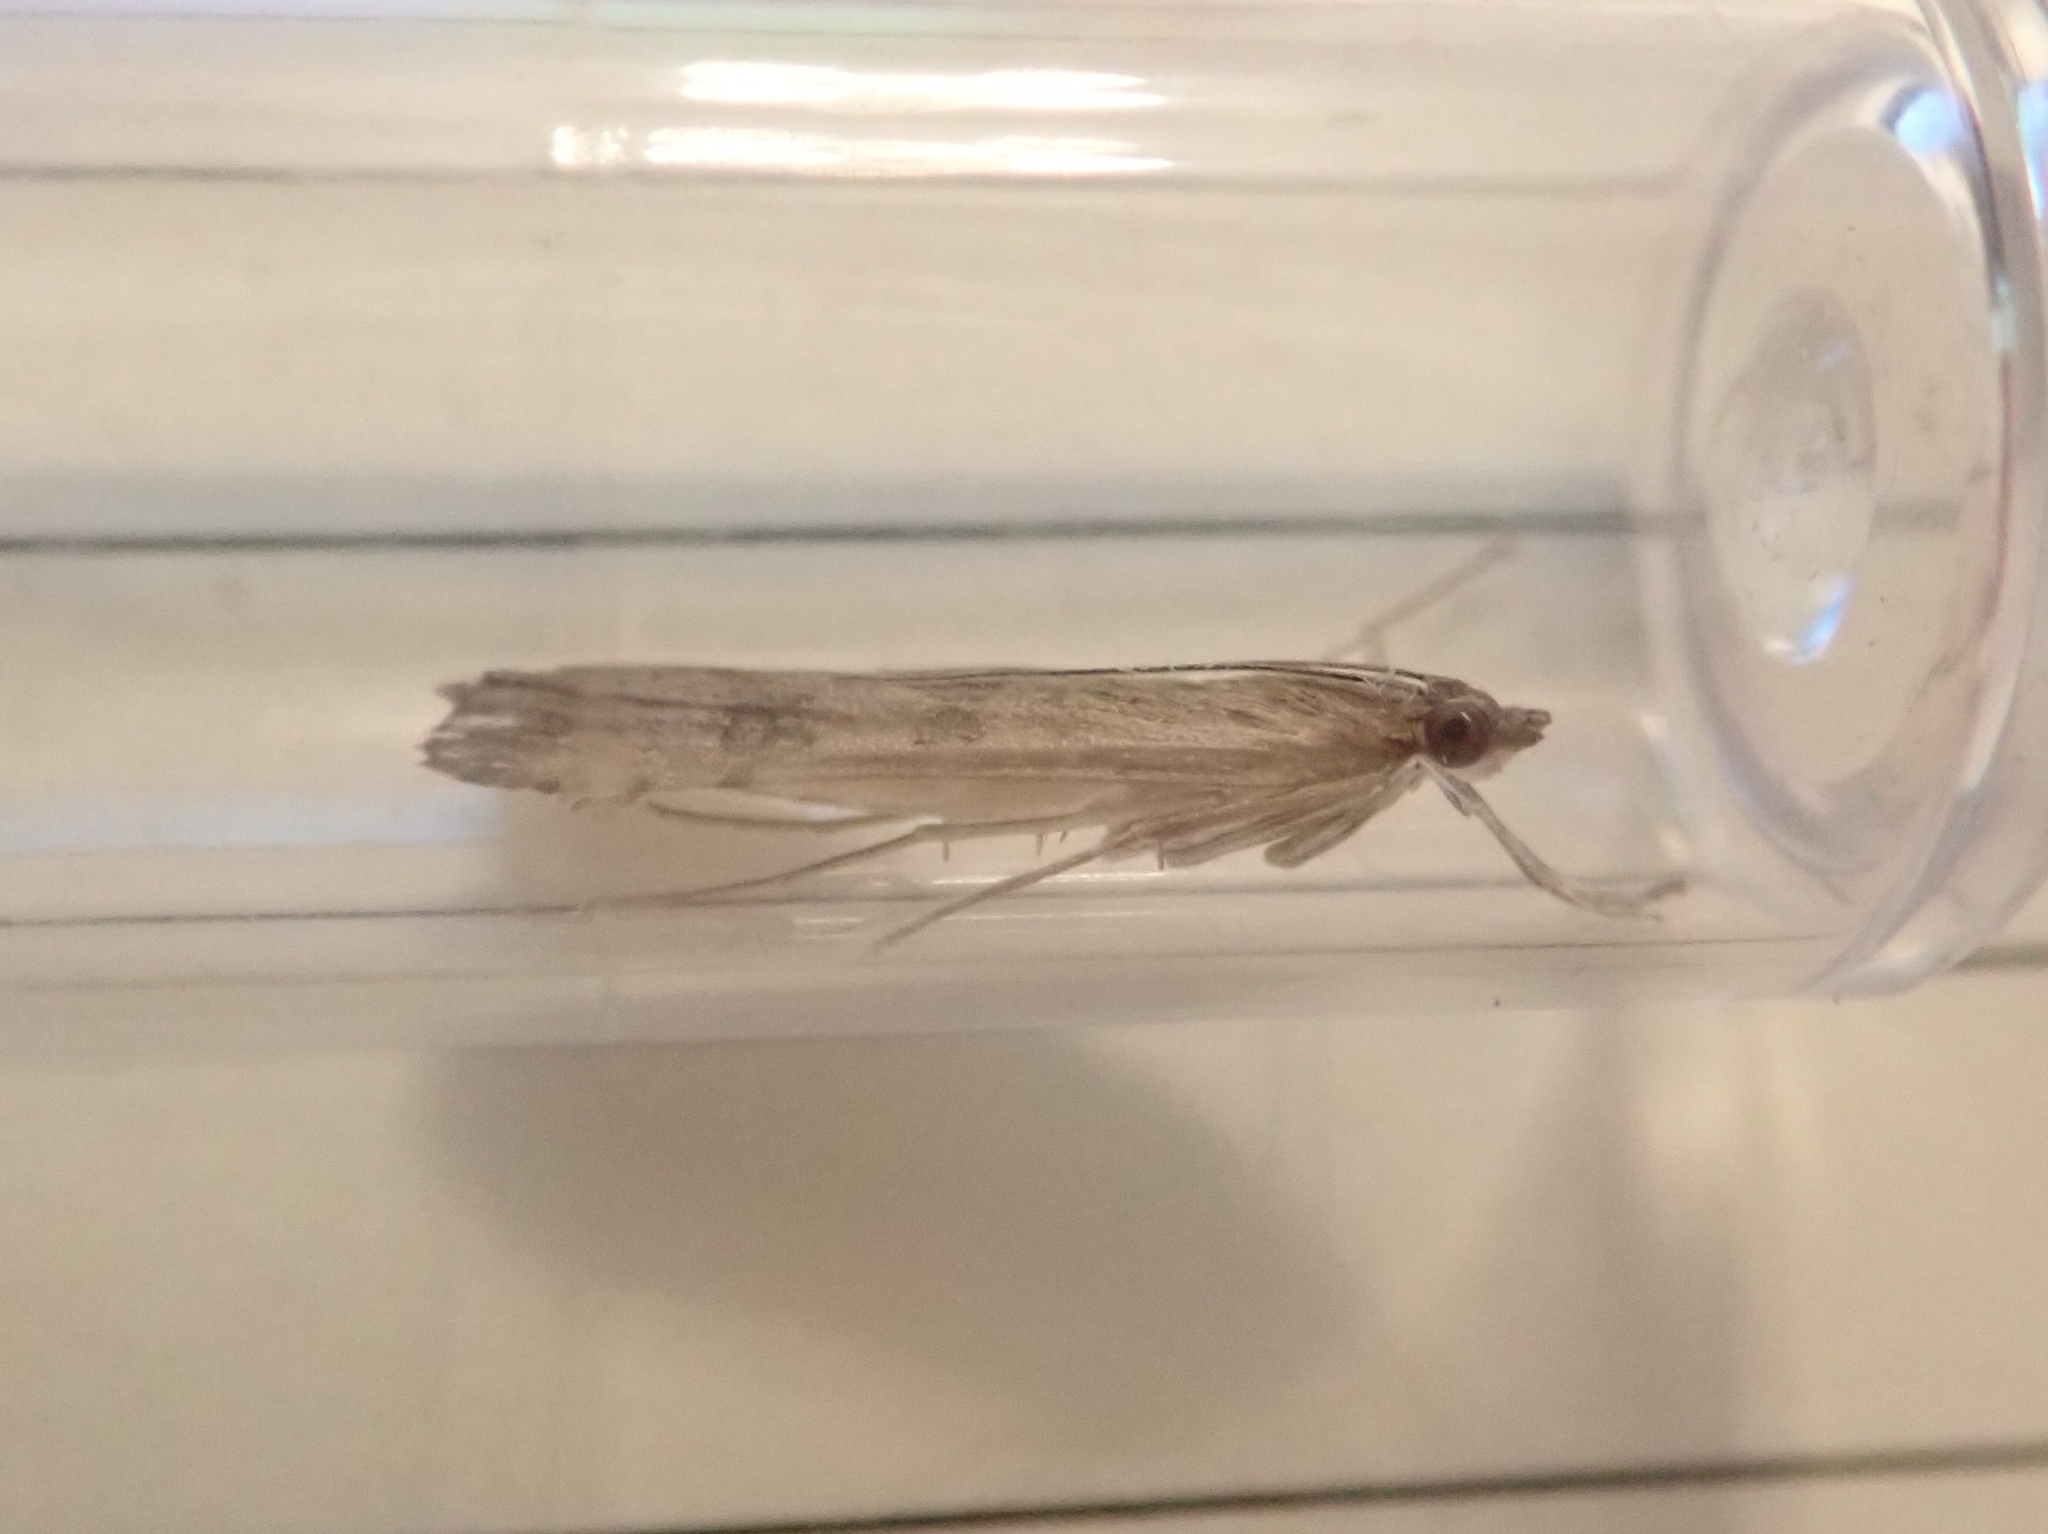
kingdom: Animalia
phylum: Arthropoda
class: Insecta
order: Lepidoptera
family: Crambidae
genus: Nomophila
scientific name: Nomophila noctuella
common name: Rush veneer
